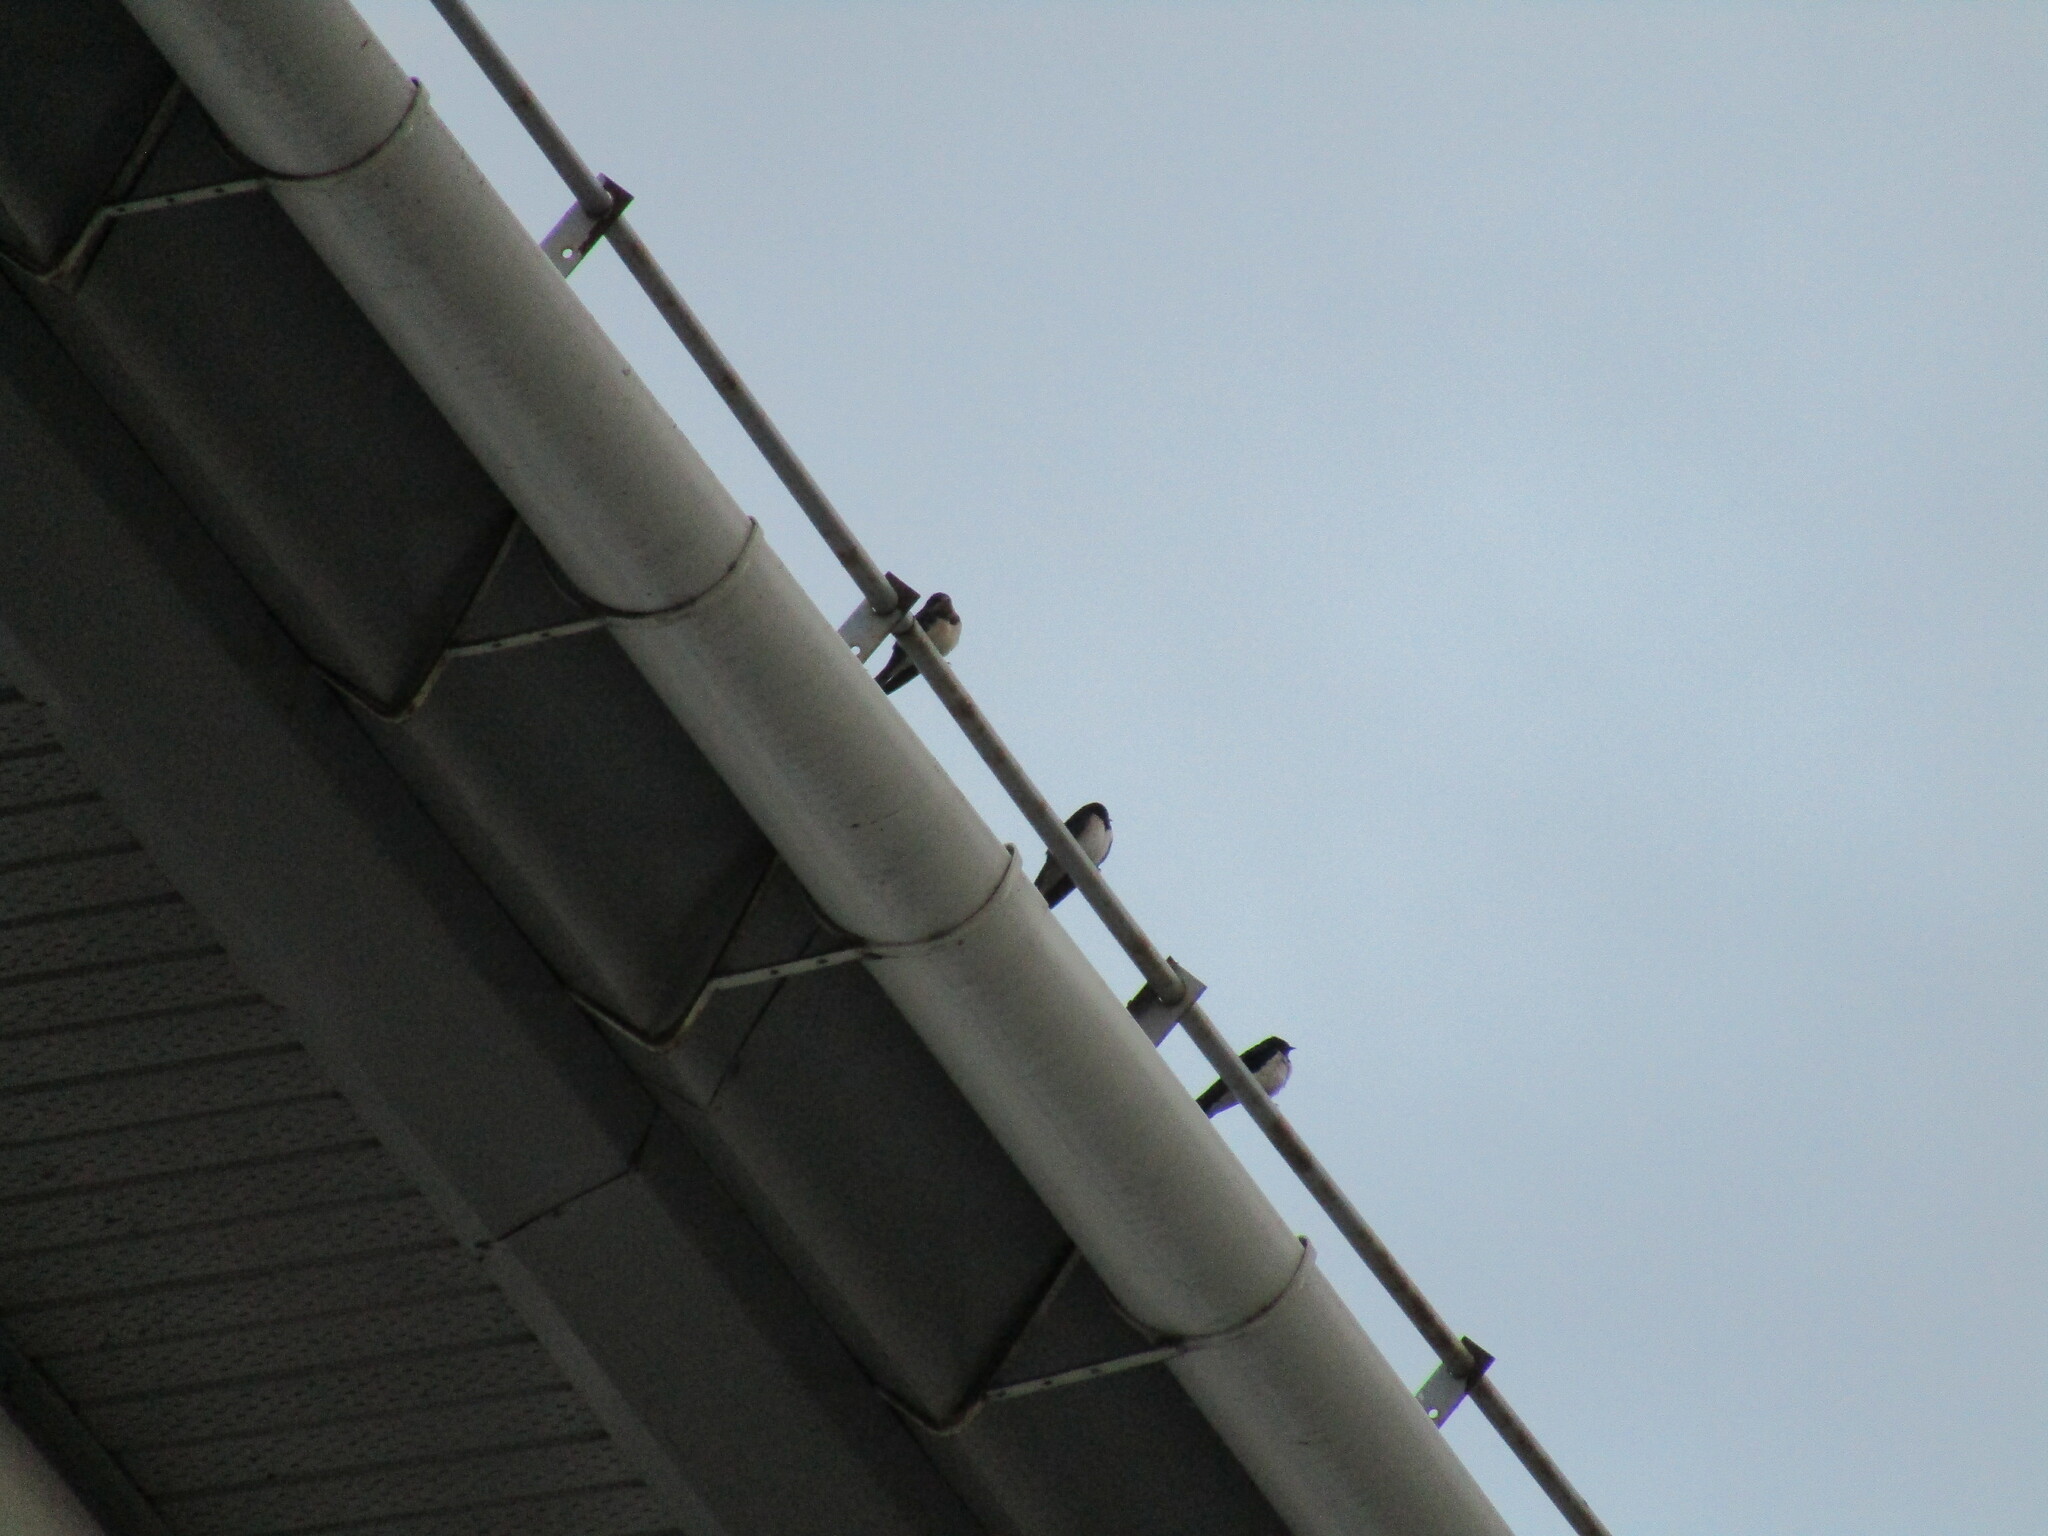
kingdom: Animalia
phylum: Chordata
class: Aves
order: Passeriformes
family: Hirundinidae
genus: Hirundo
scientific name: Hirundo rustica
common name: Barn swallow
